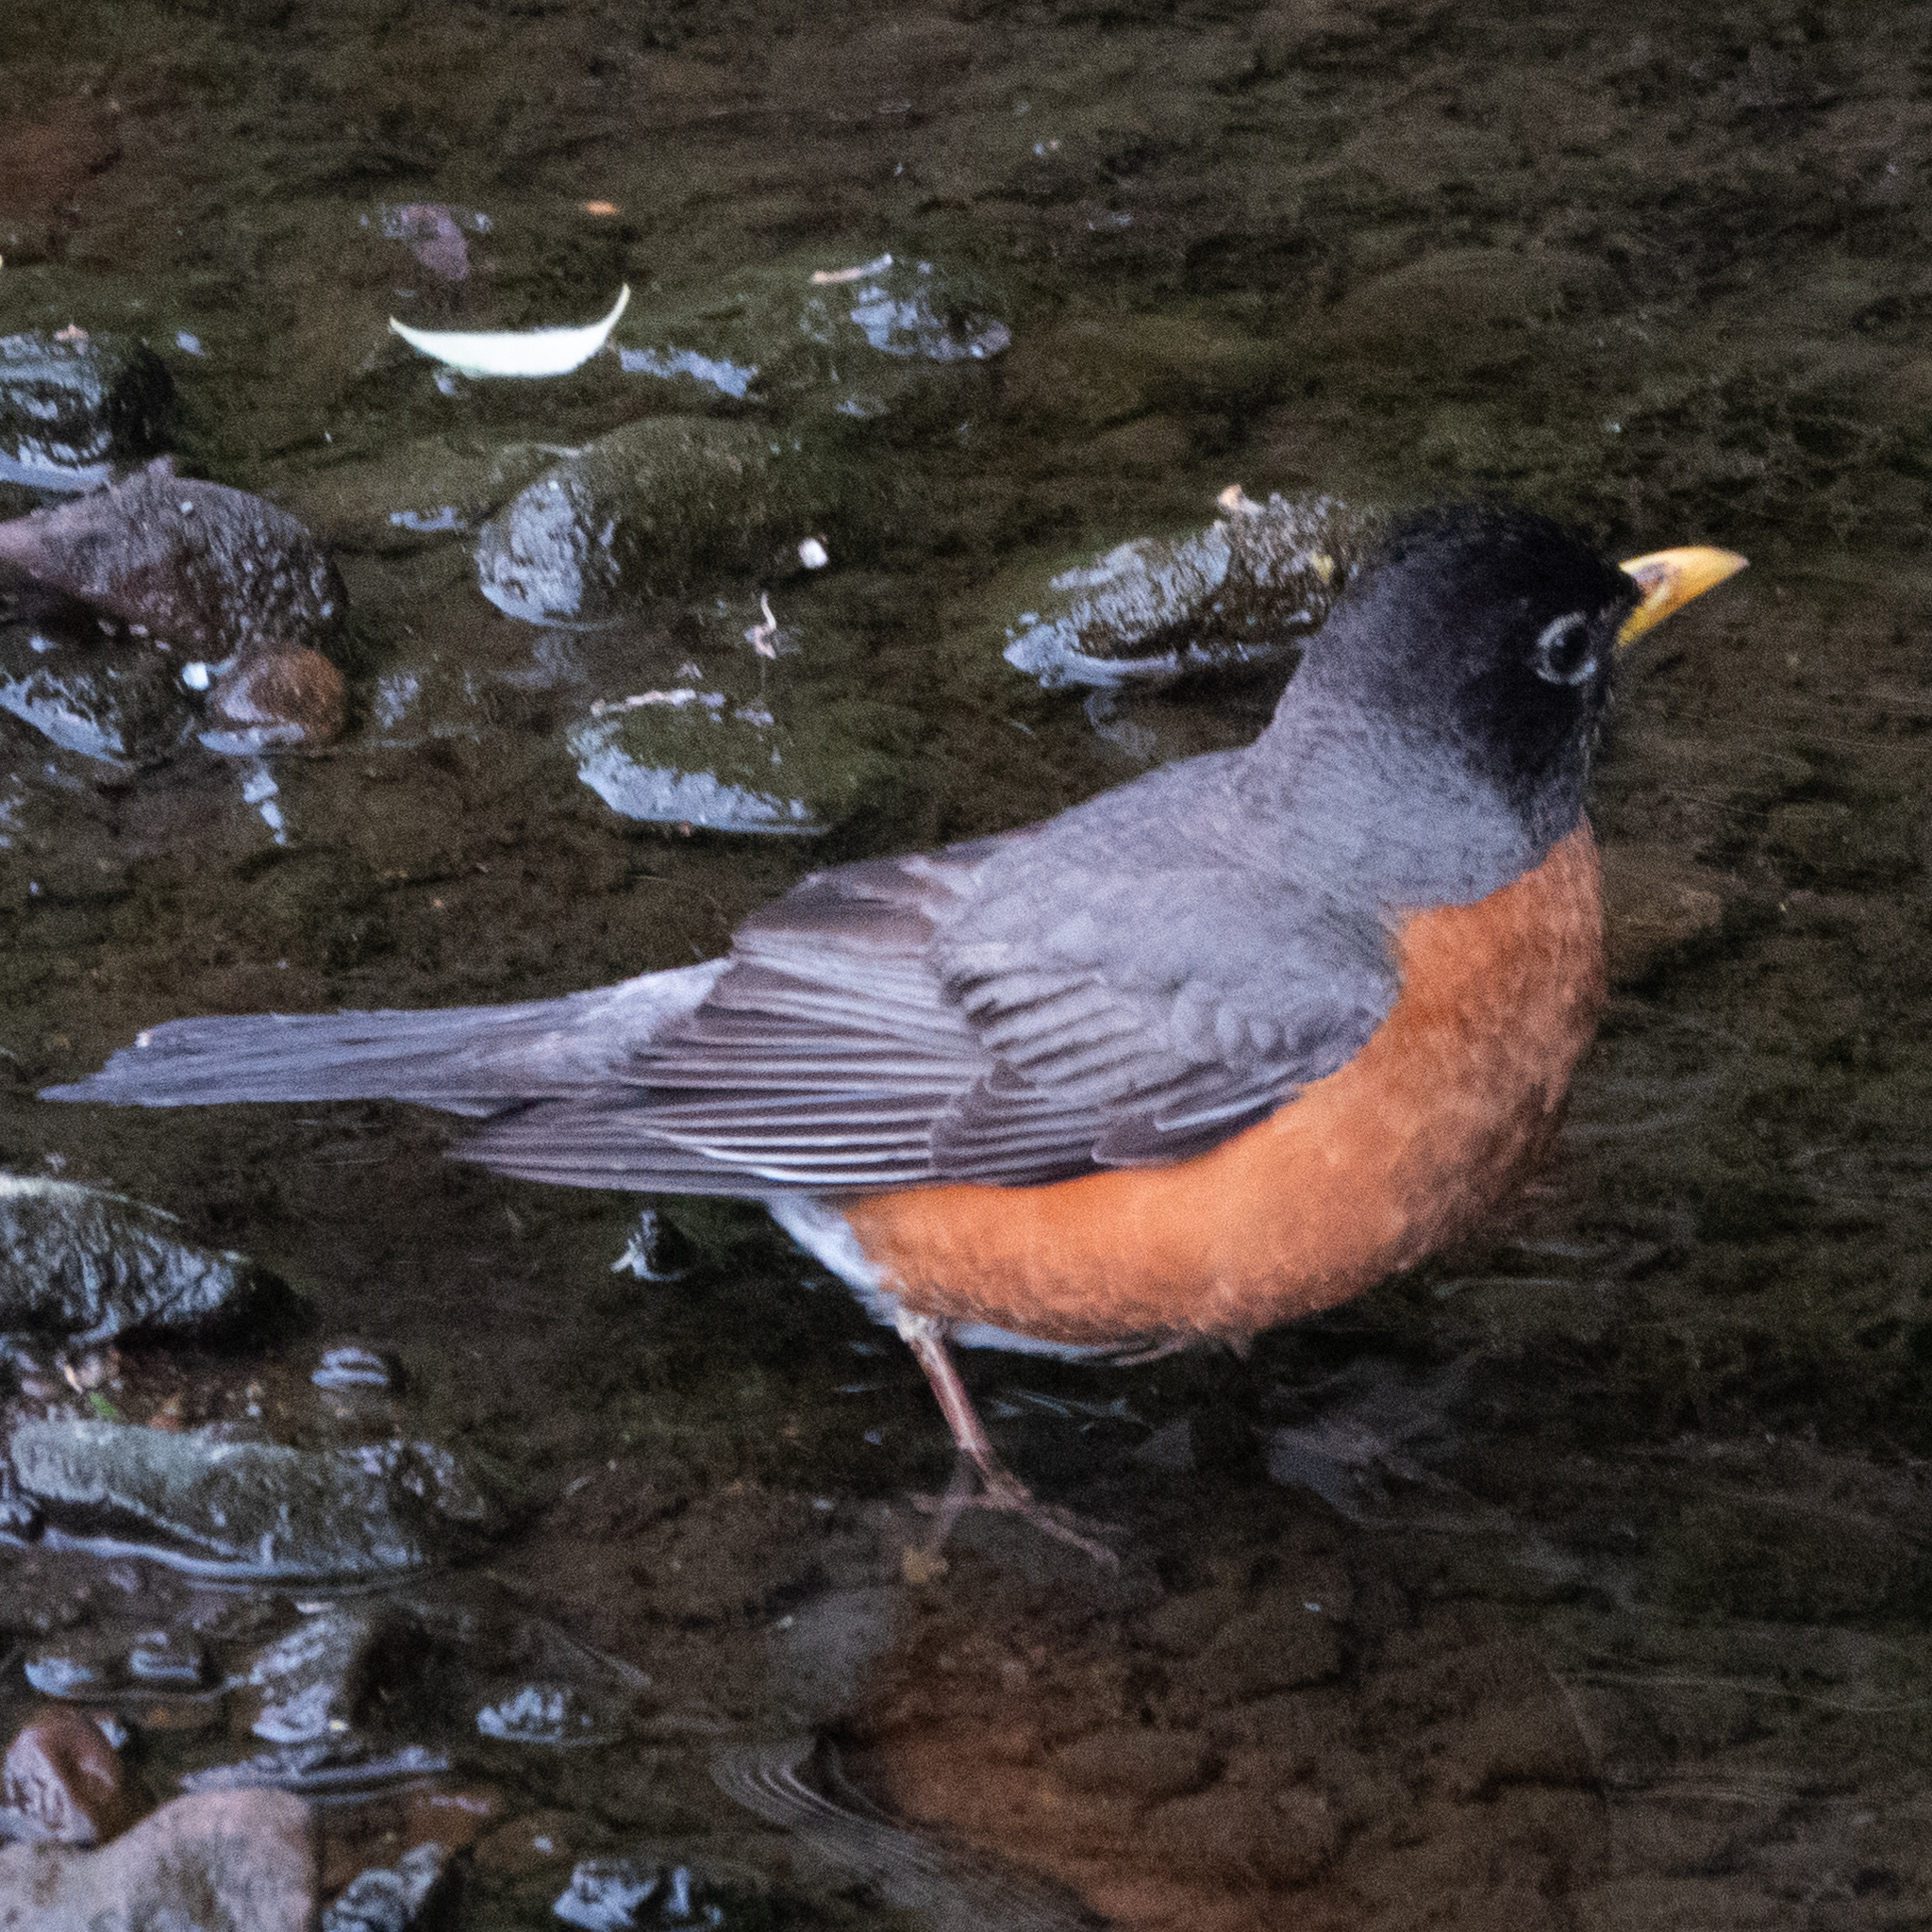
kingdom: Animalia
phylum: Chordata
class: Aves
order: Passeriformes
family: Turdidae
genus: Turdus
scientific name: Turdus migratorius
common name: American robin
